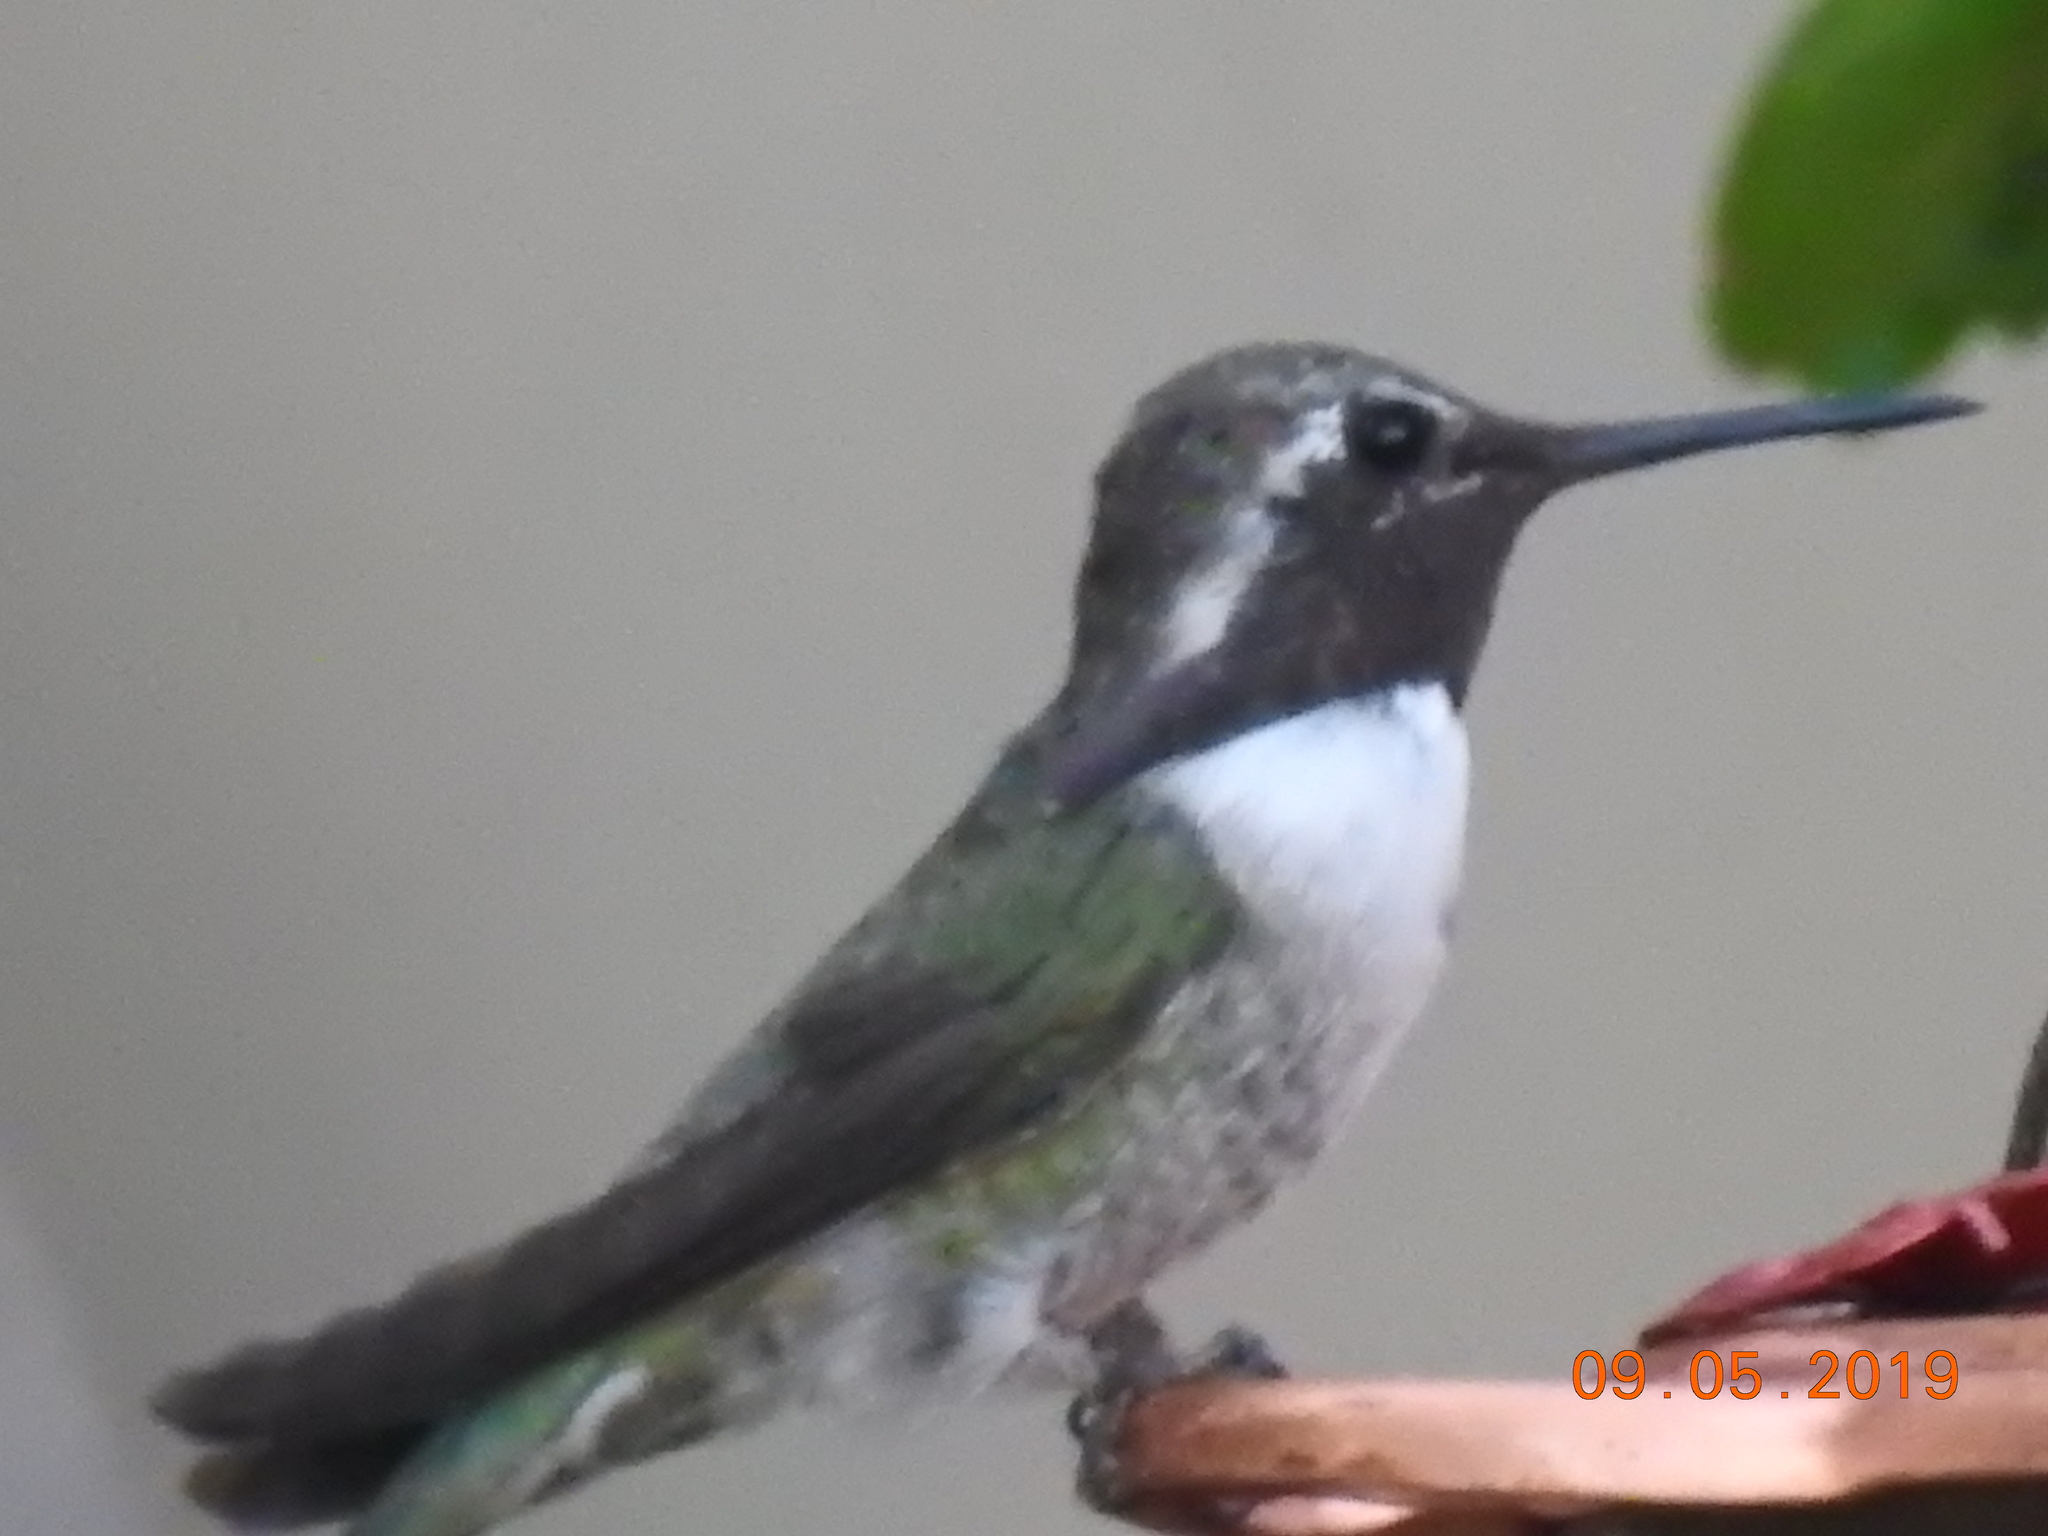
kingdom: Animalia
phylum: Chordata
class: Aves
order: Apodiformes
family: Trochilidae
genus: Calypte
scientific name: Calypte costae
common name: Costa's hummingbird
